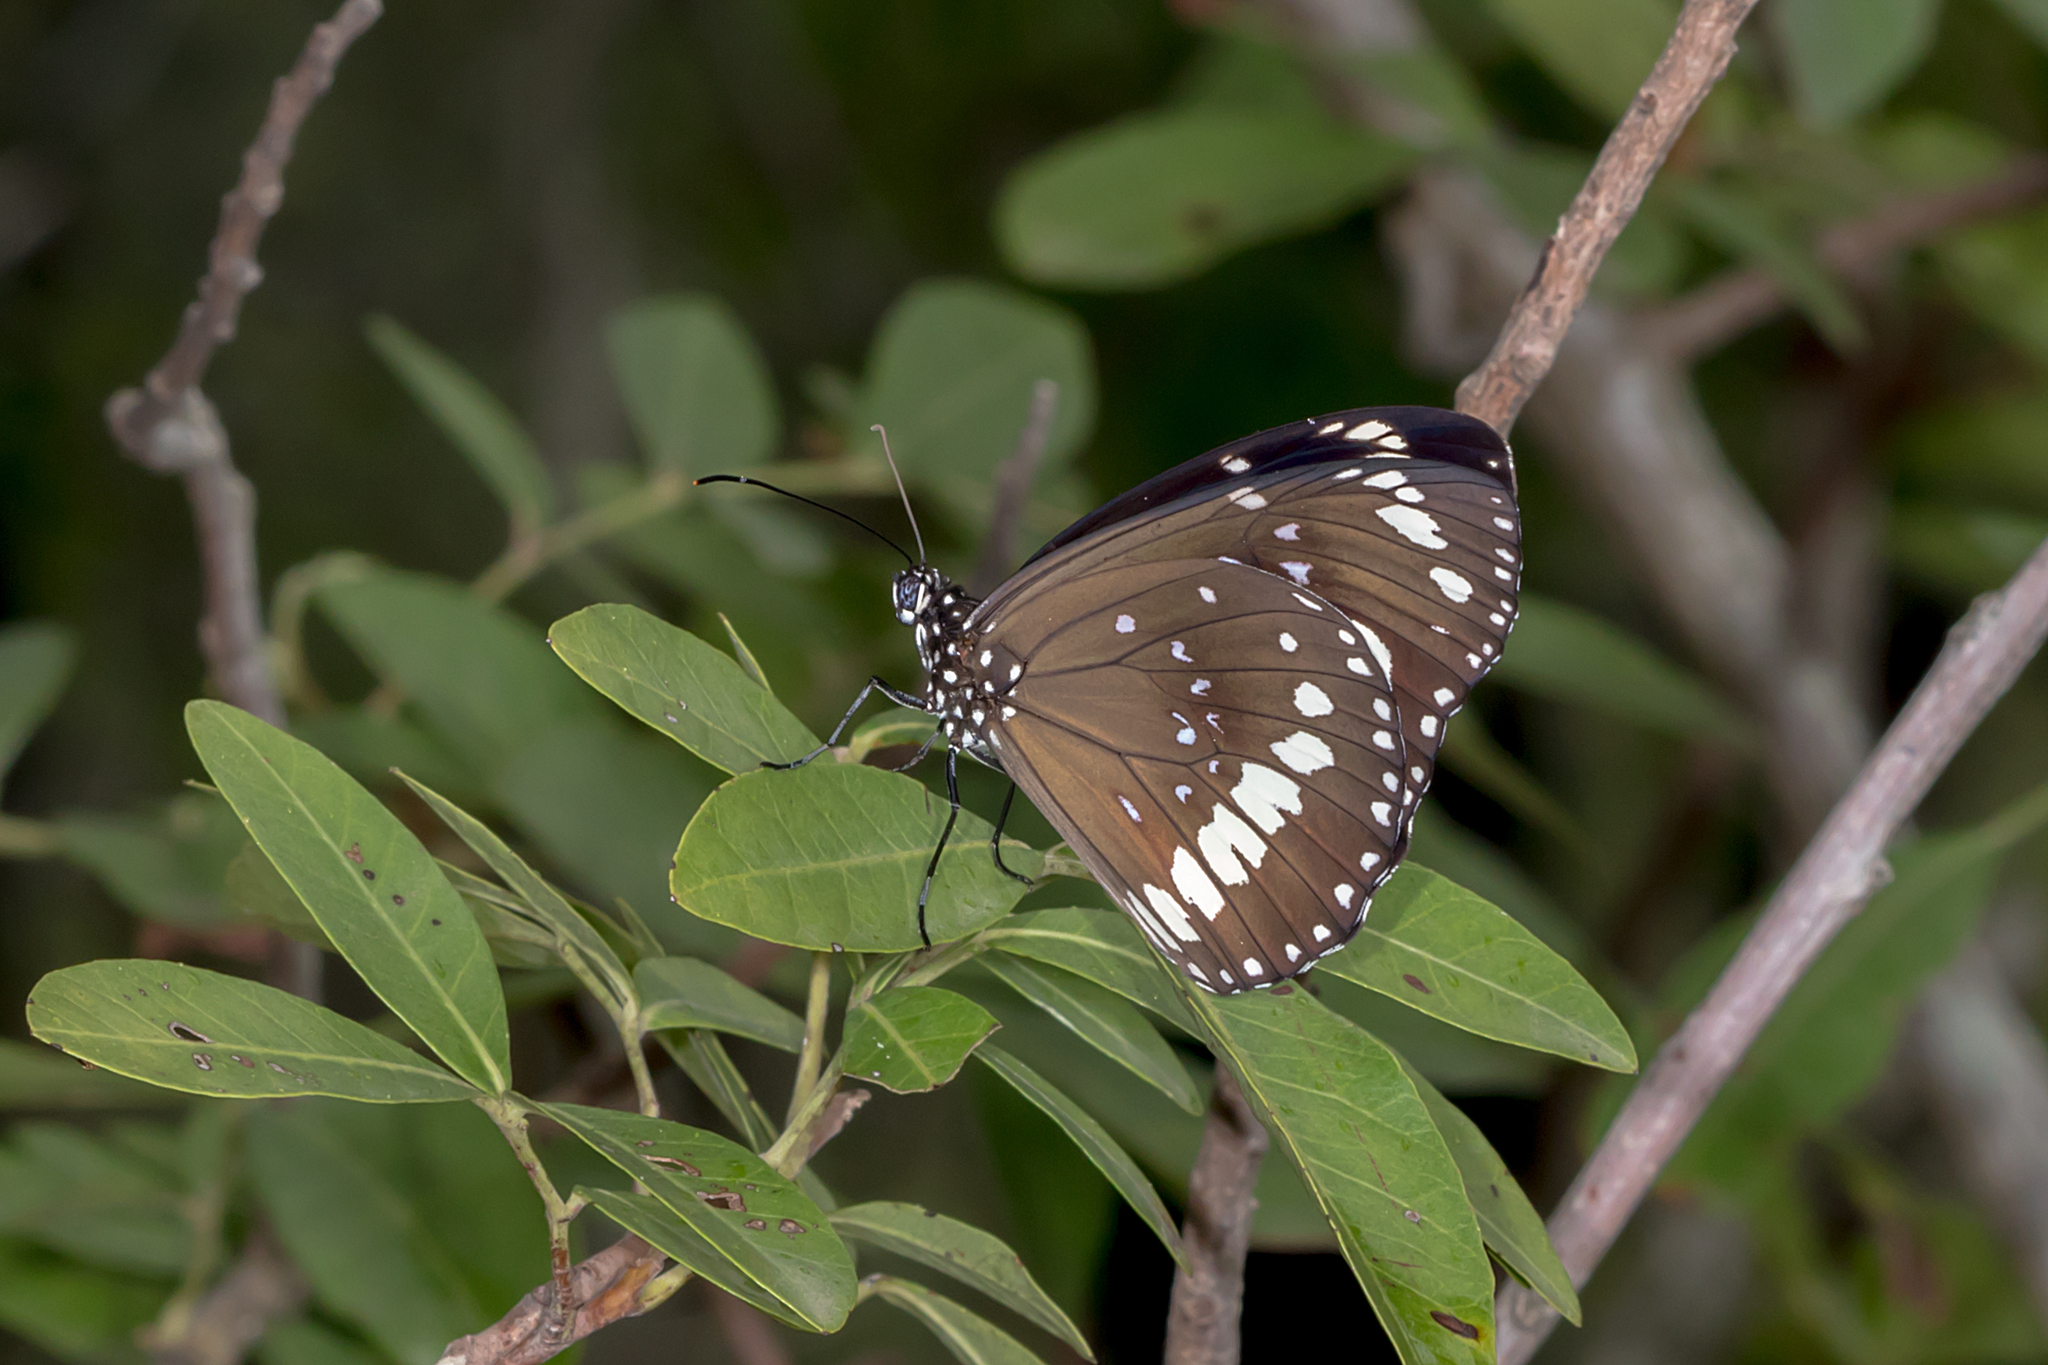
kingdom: Animalia
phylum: Arthropoda
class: Insecta
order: Lepidoptera
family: Nymphalidae
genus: Euploea
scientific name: Euploea core
